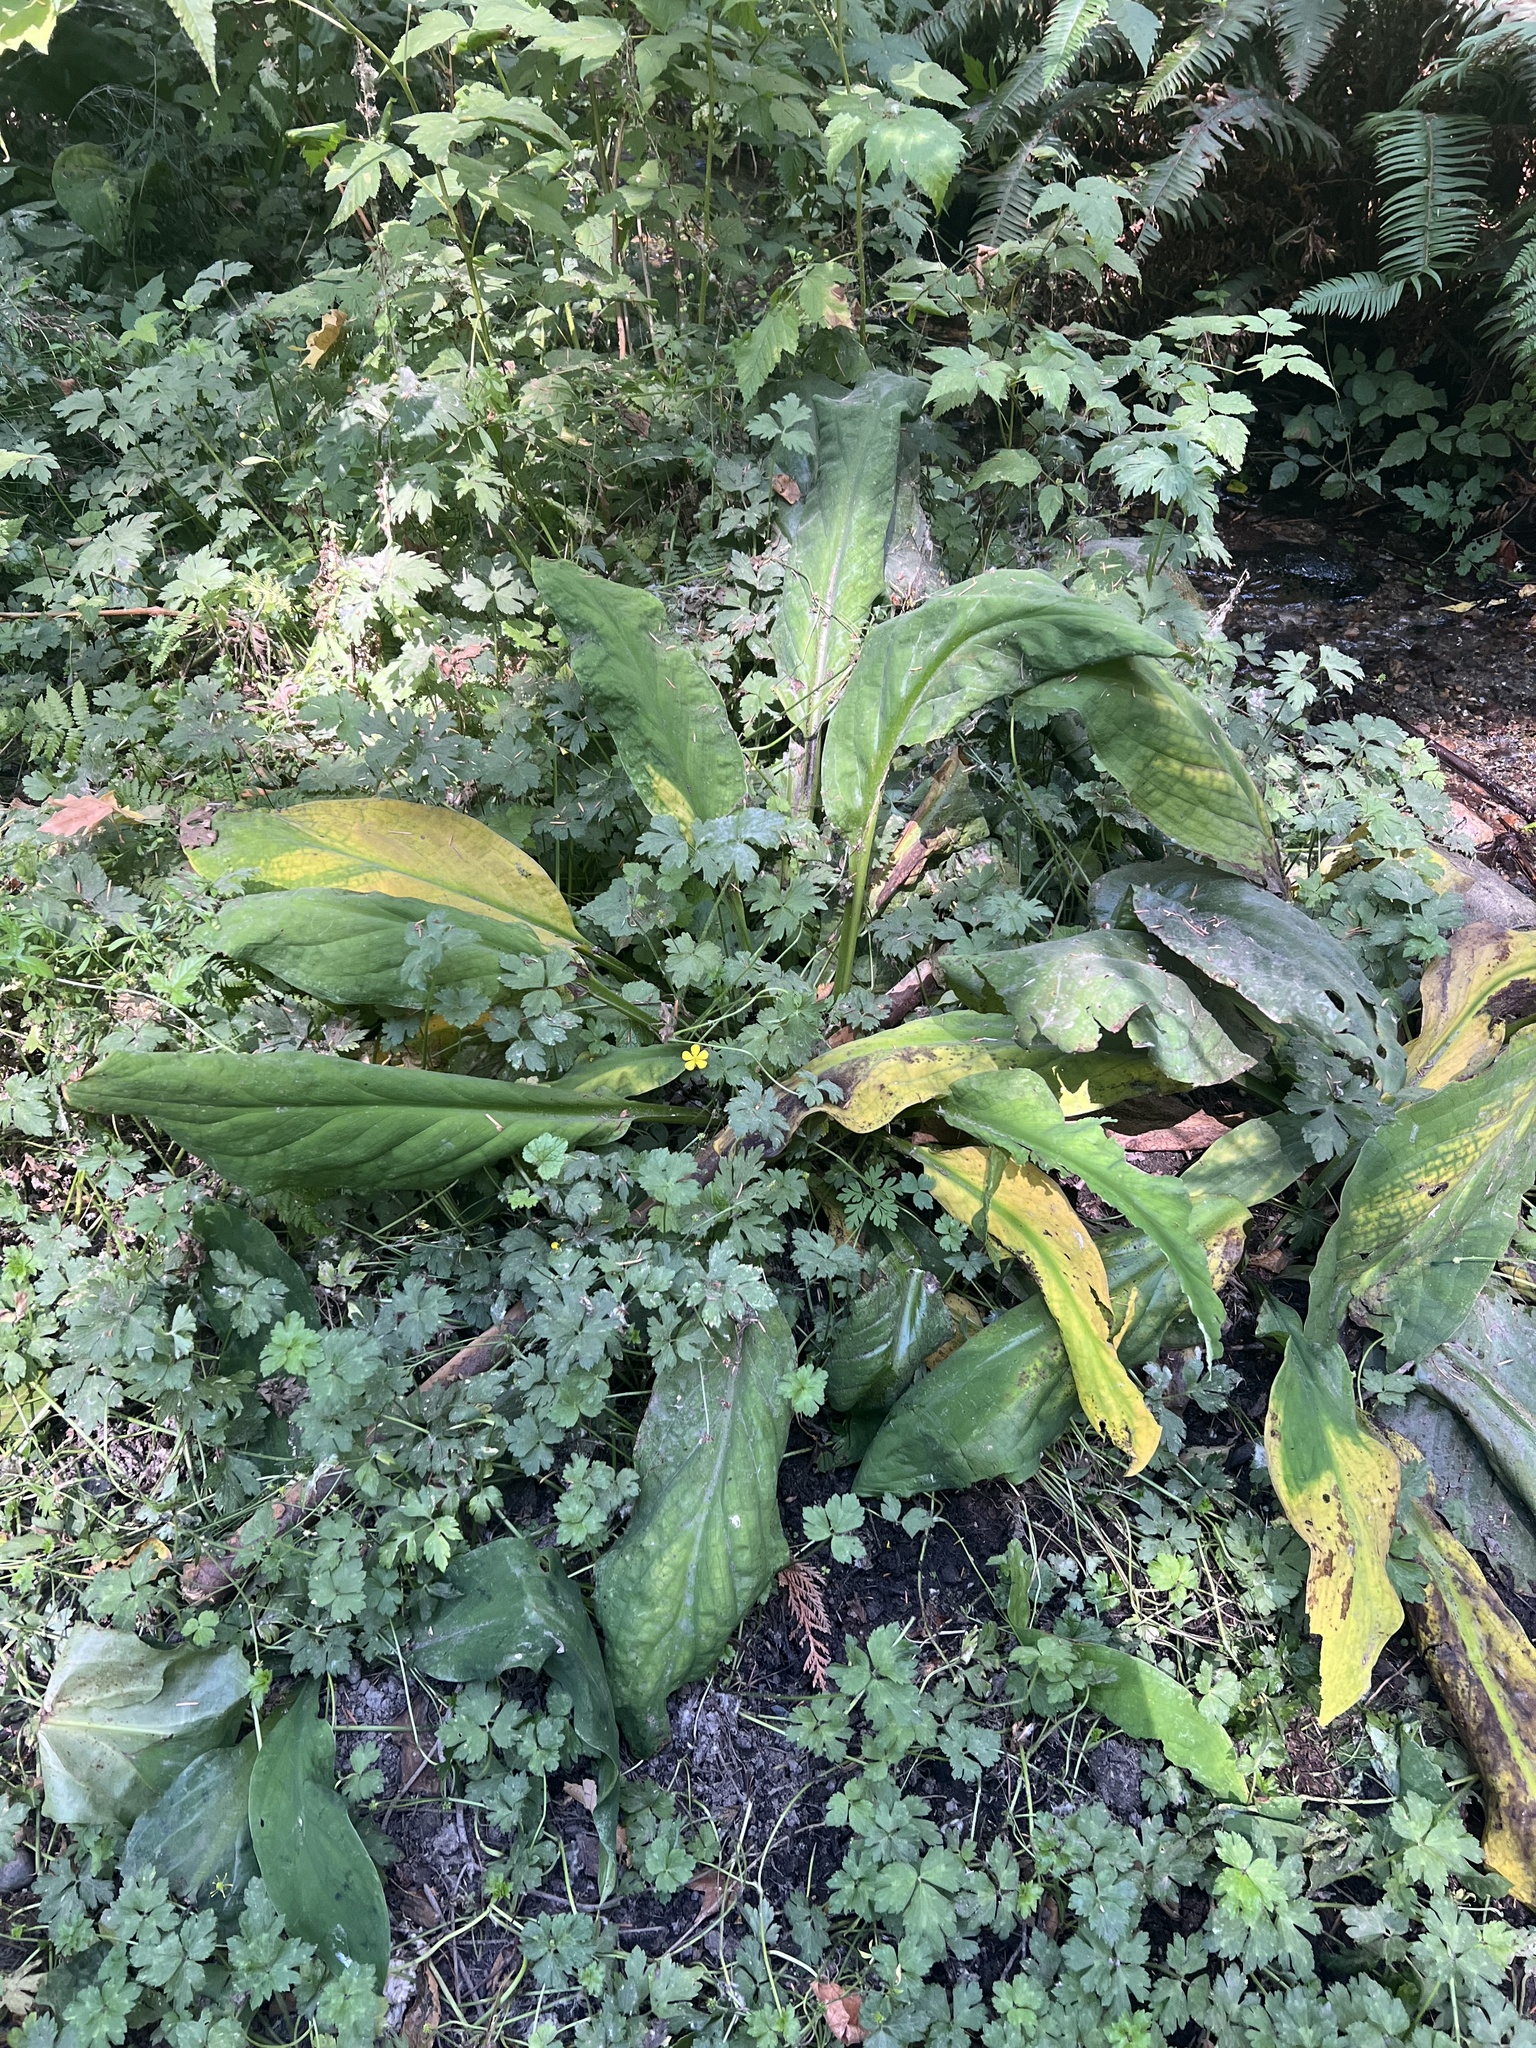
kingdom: Plantae
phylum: Tracheophyta
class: Liliopsida
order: Alismatales
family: Araceae
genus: Lysichiton
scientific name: Lysichiton americanus
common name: American skunk cabbage
